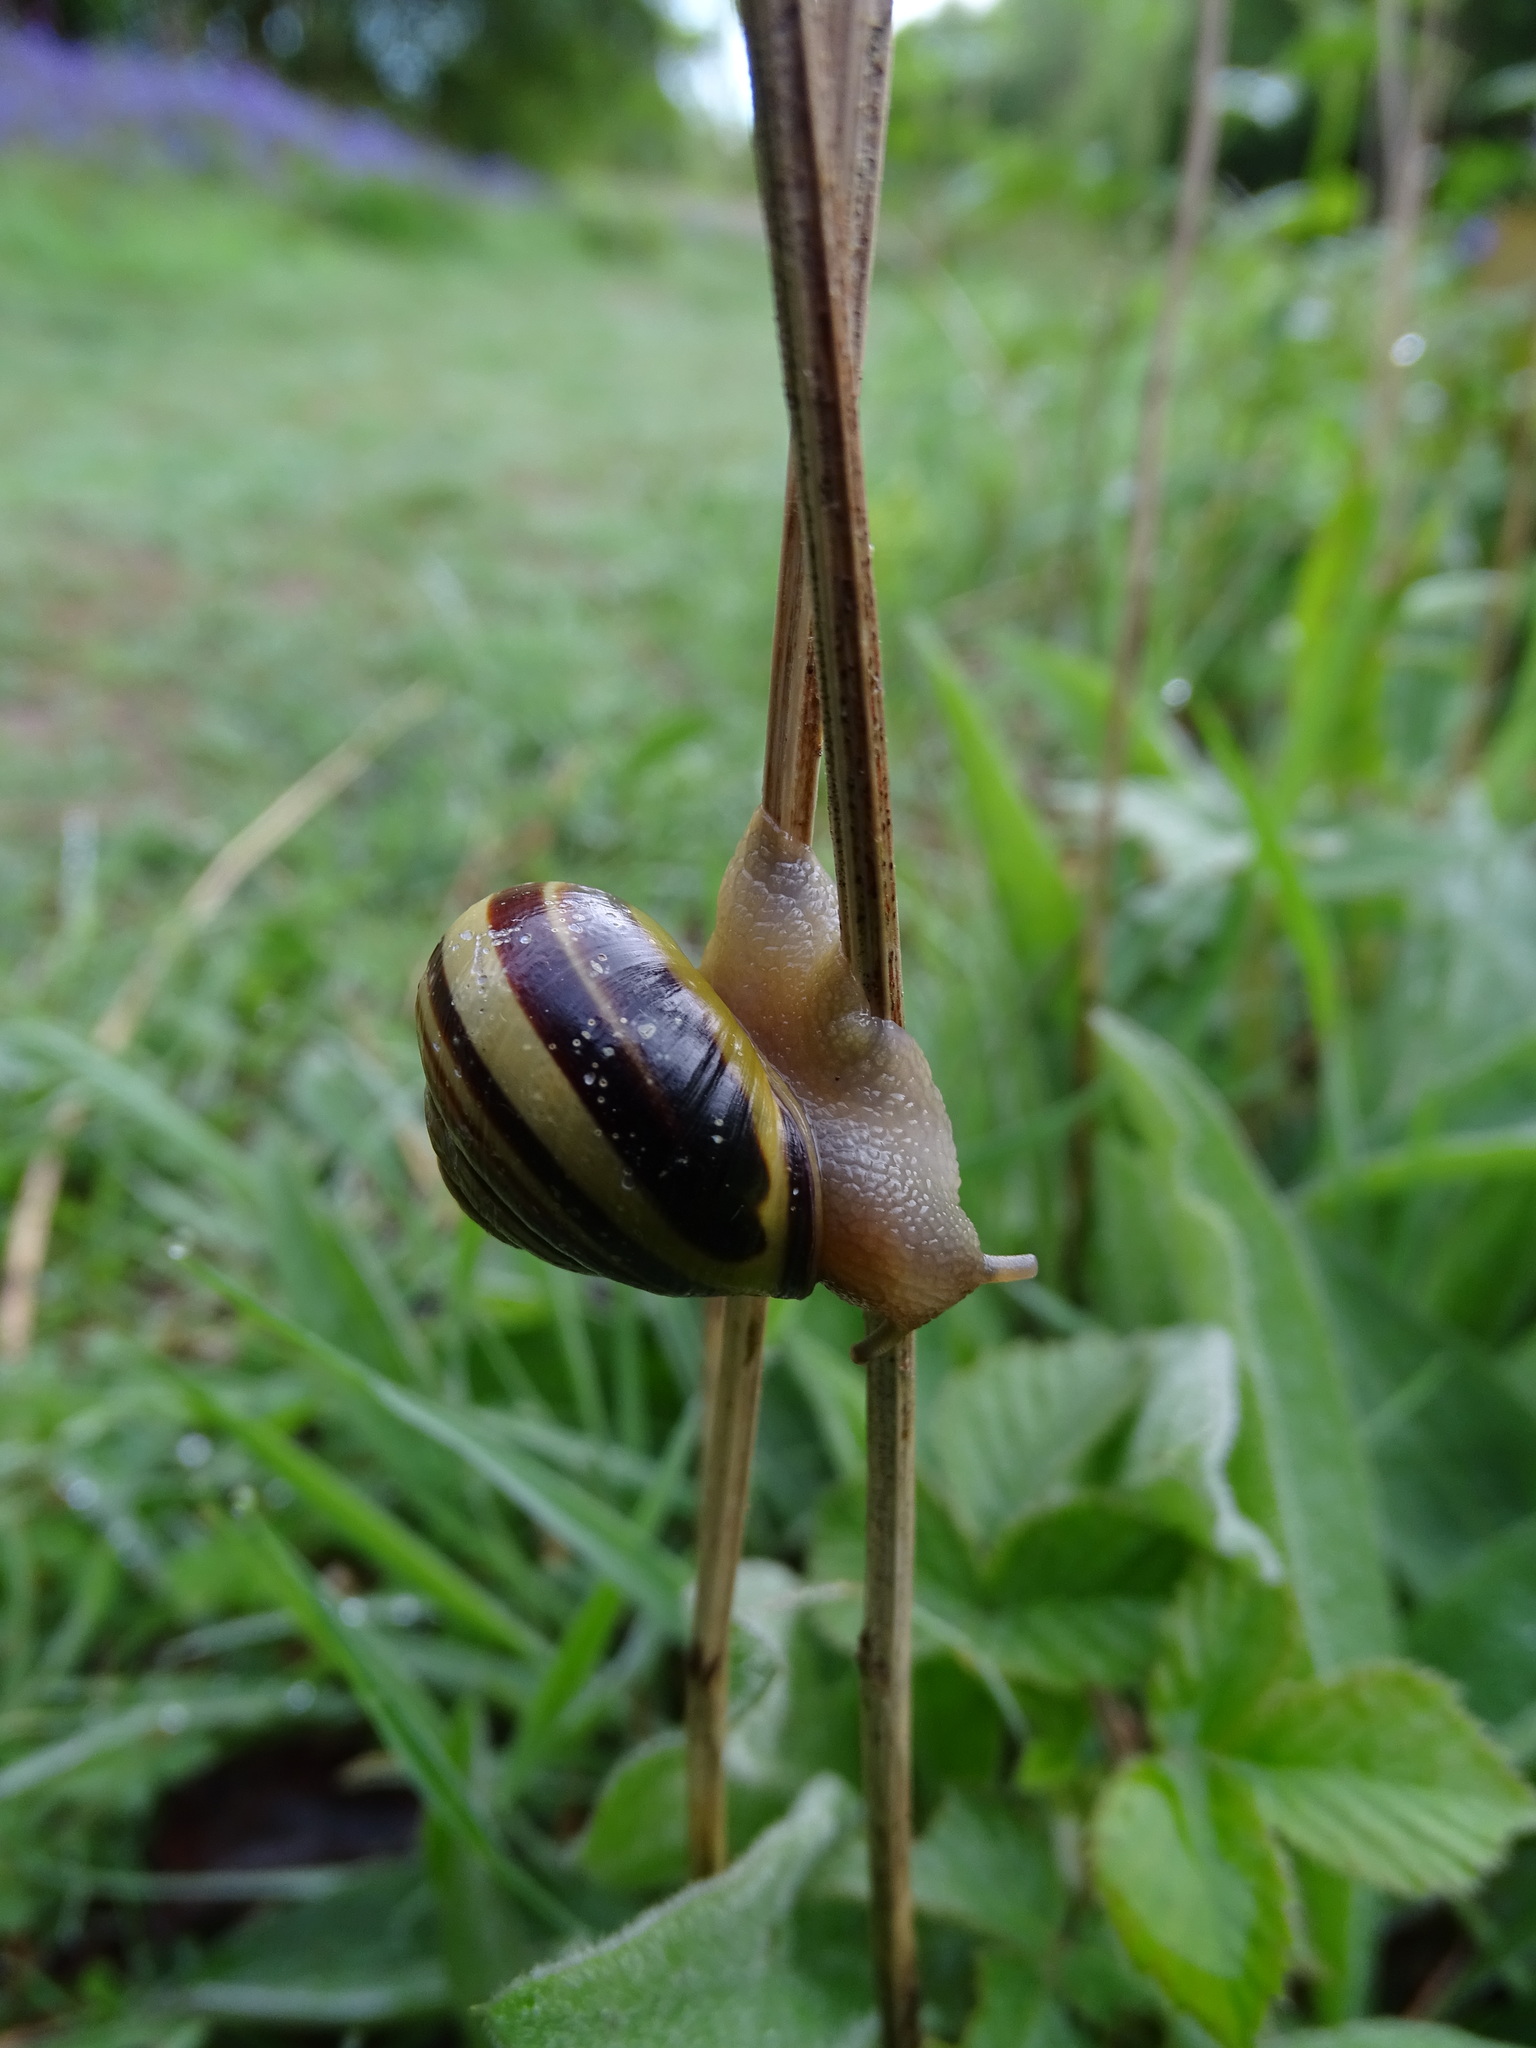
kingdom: Animalia
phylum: Mollusca
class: Gastropoda
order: Stylommatophora
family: Helicidae
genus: Cepaea
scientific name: Cepaea nemoralis
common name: Grovesnail
